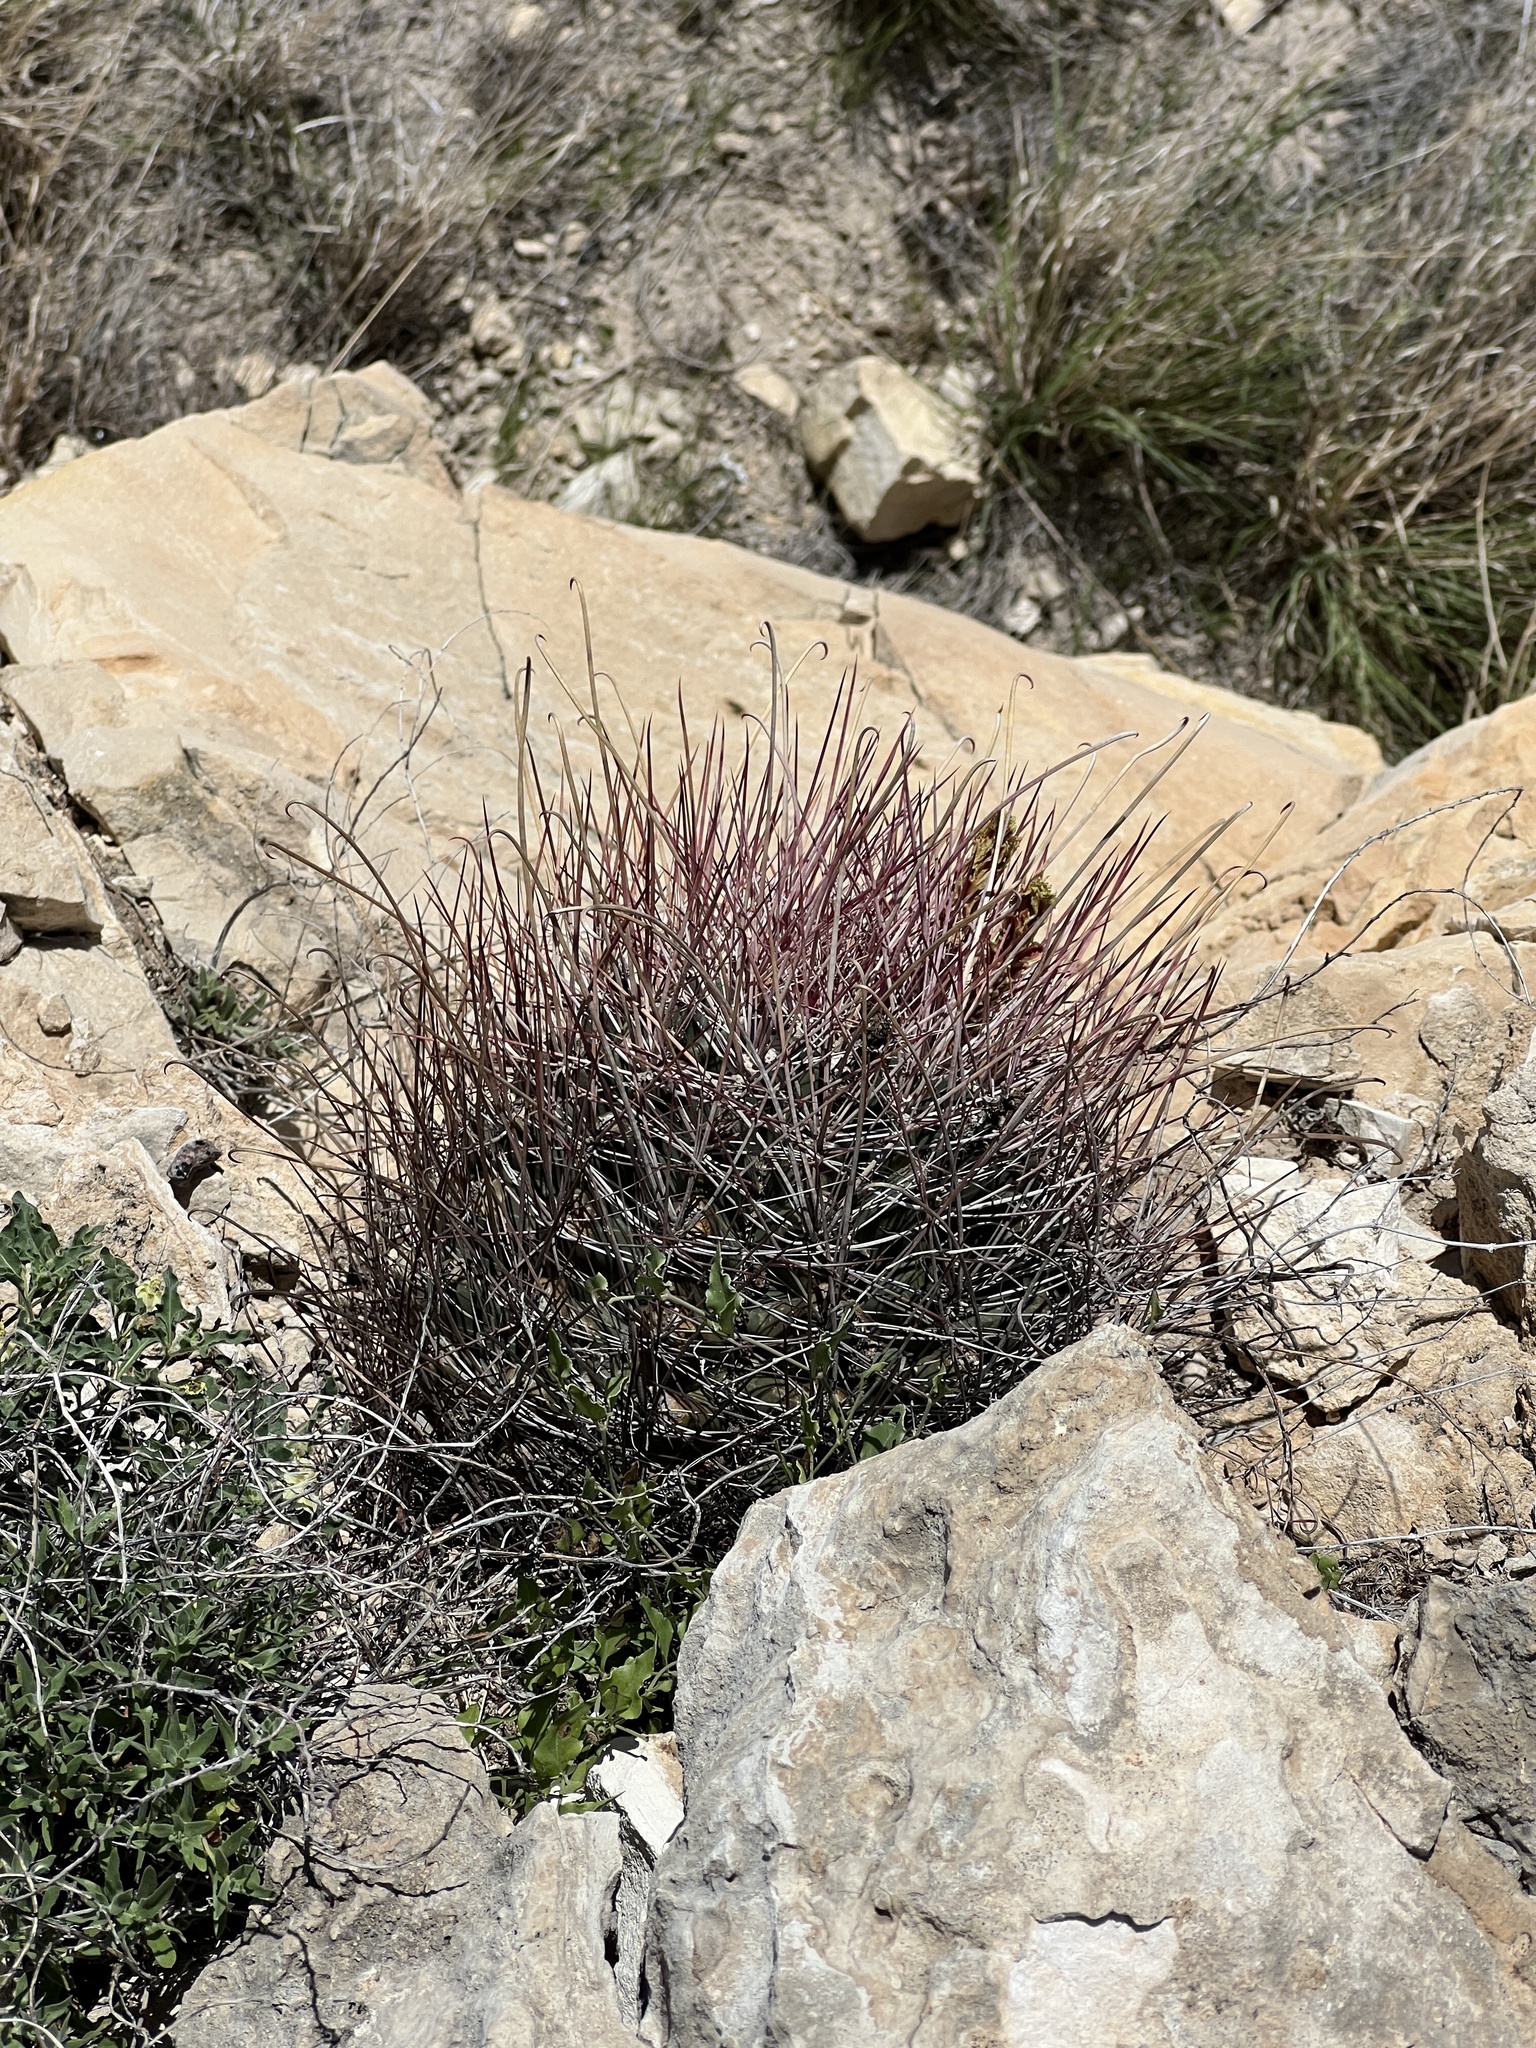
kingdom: Plantae
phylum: Tracheophyta
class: Magnoliopsida
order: Caryophyllales
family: Cactaceae
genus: Bisnaga
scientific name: Bisnaga hamatacantha
